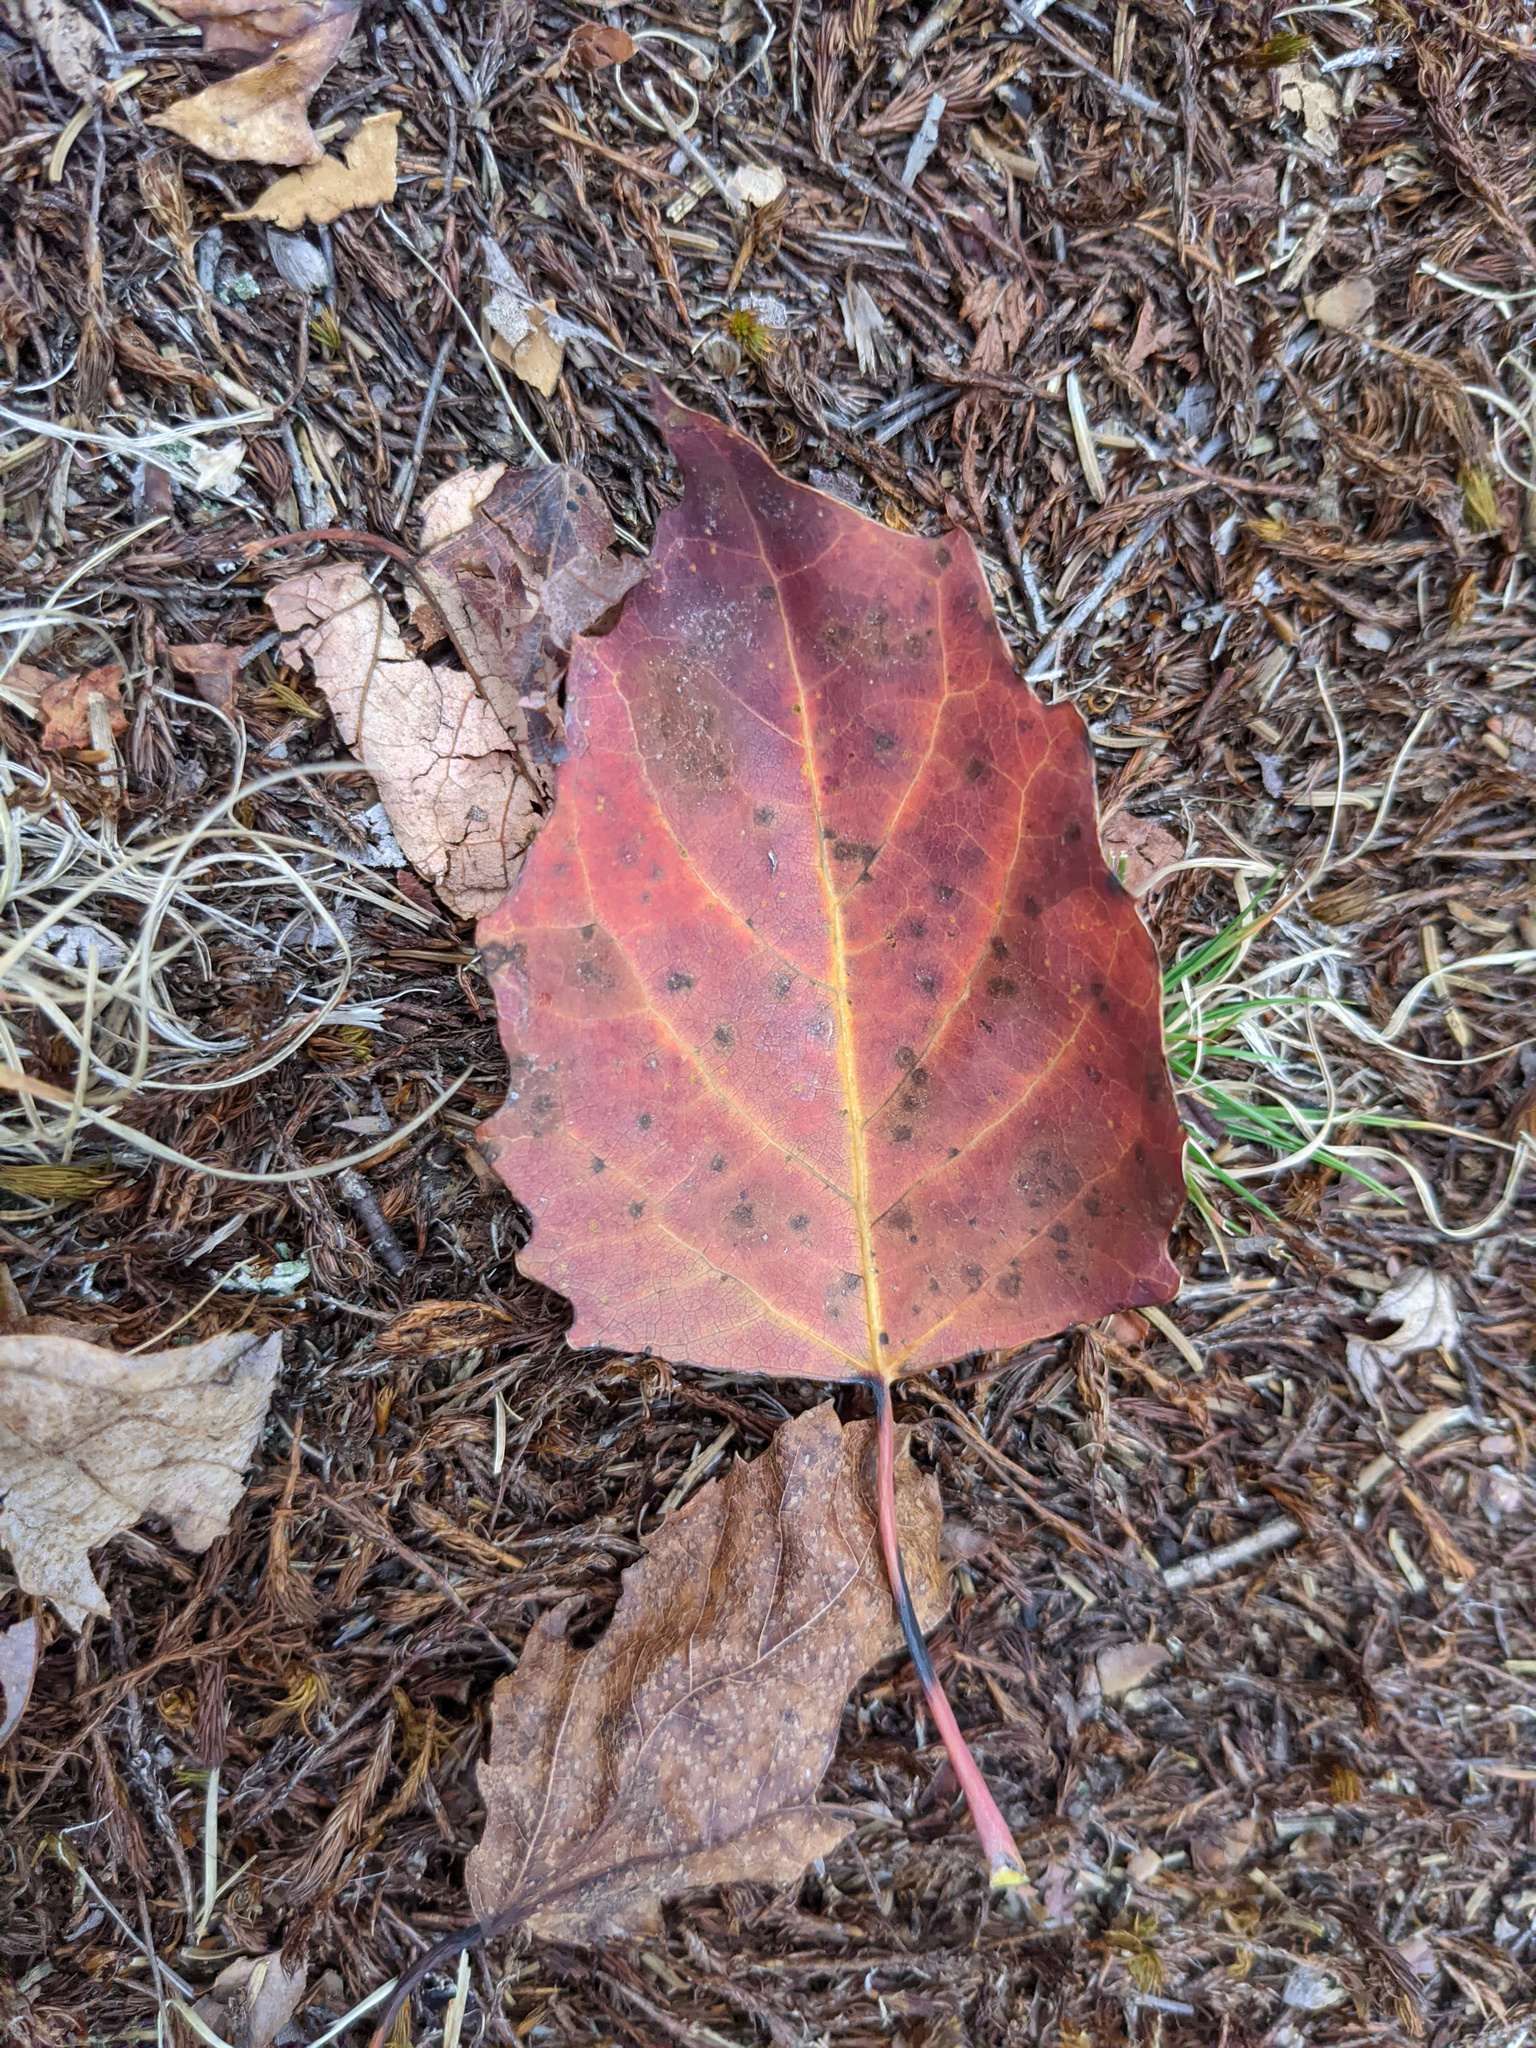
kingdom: Plantae
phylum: Tracheophyta
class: Magnoliopsida
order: Malpighiales
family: Salicaceae
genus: Populus
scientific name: Populus grandidentata
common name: Bigtooth aspen
